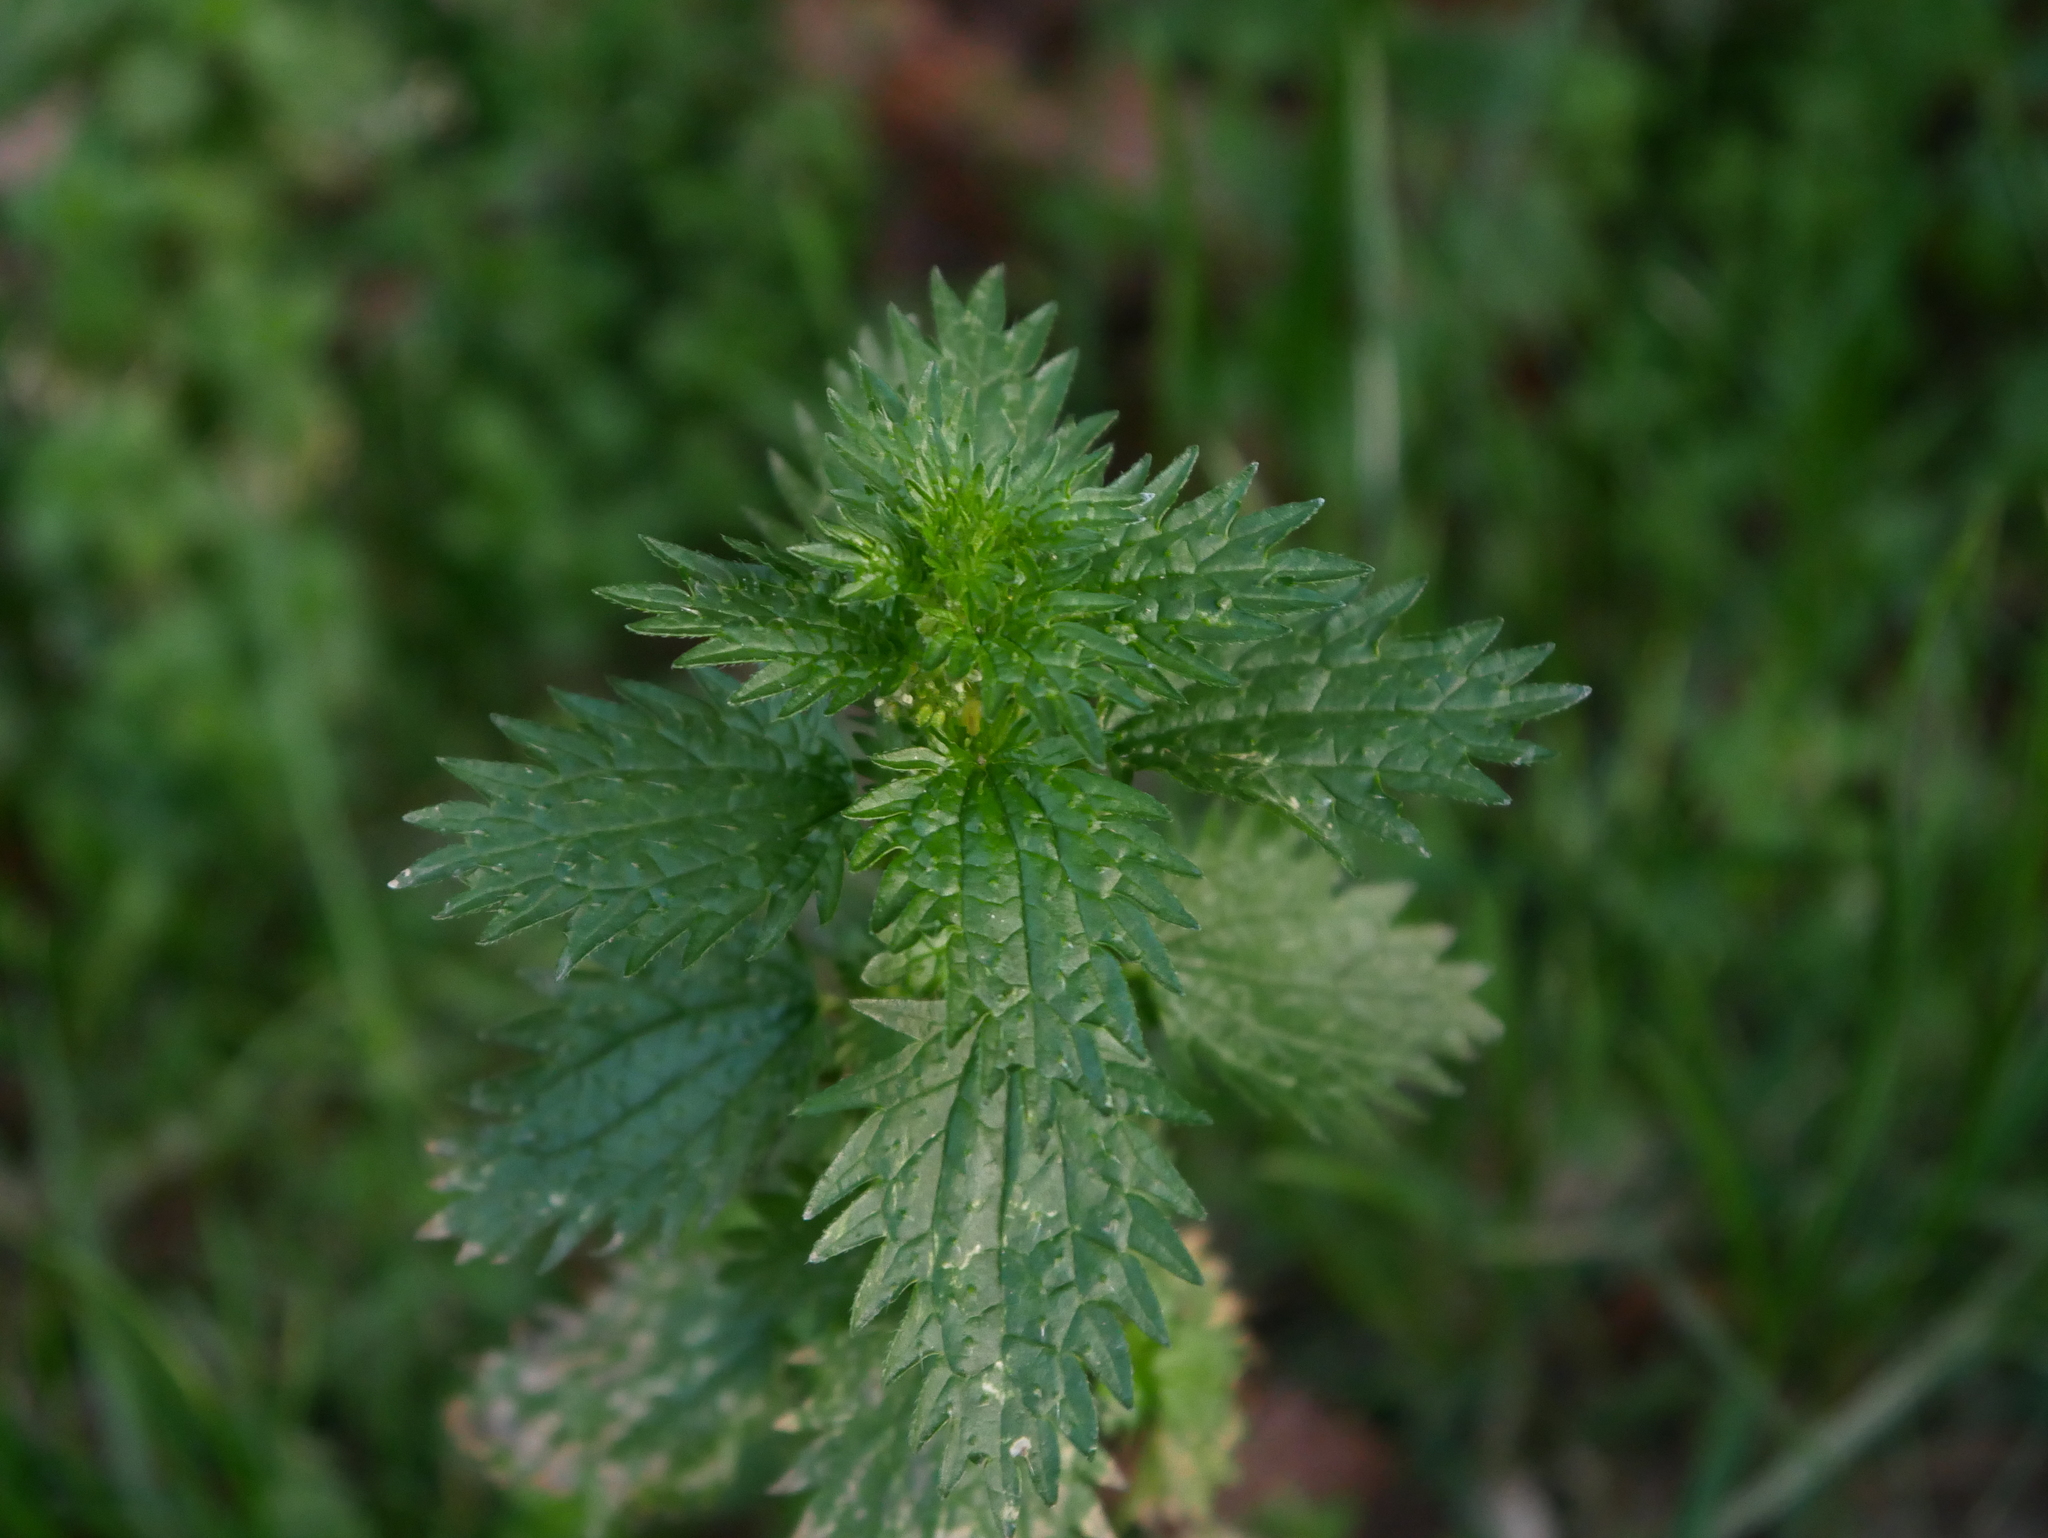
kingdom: Plantae
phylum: Tracheophyta
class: Magnoliopsida
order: Rosales
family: Urticaceae
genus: Urtica
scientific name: Urtica urens
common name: Dwarf nettle
